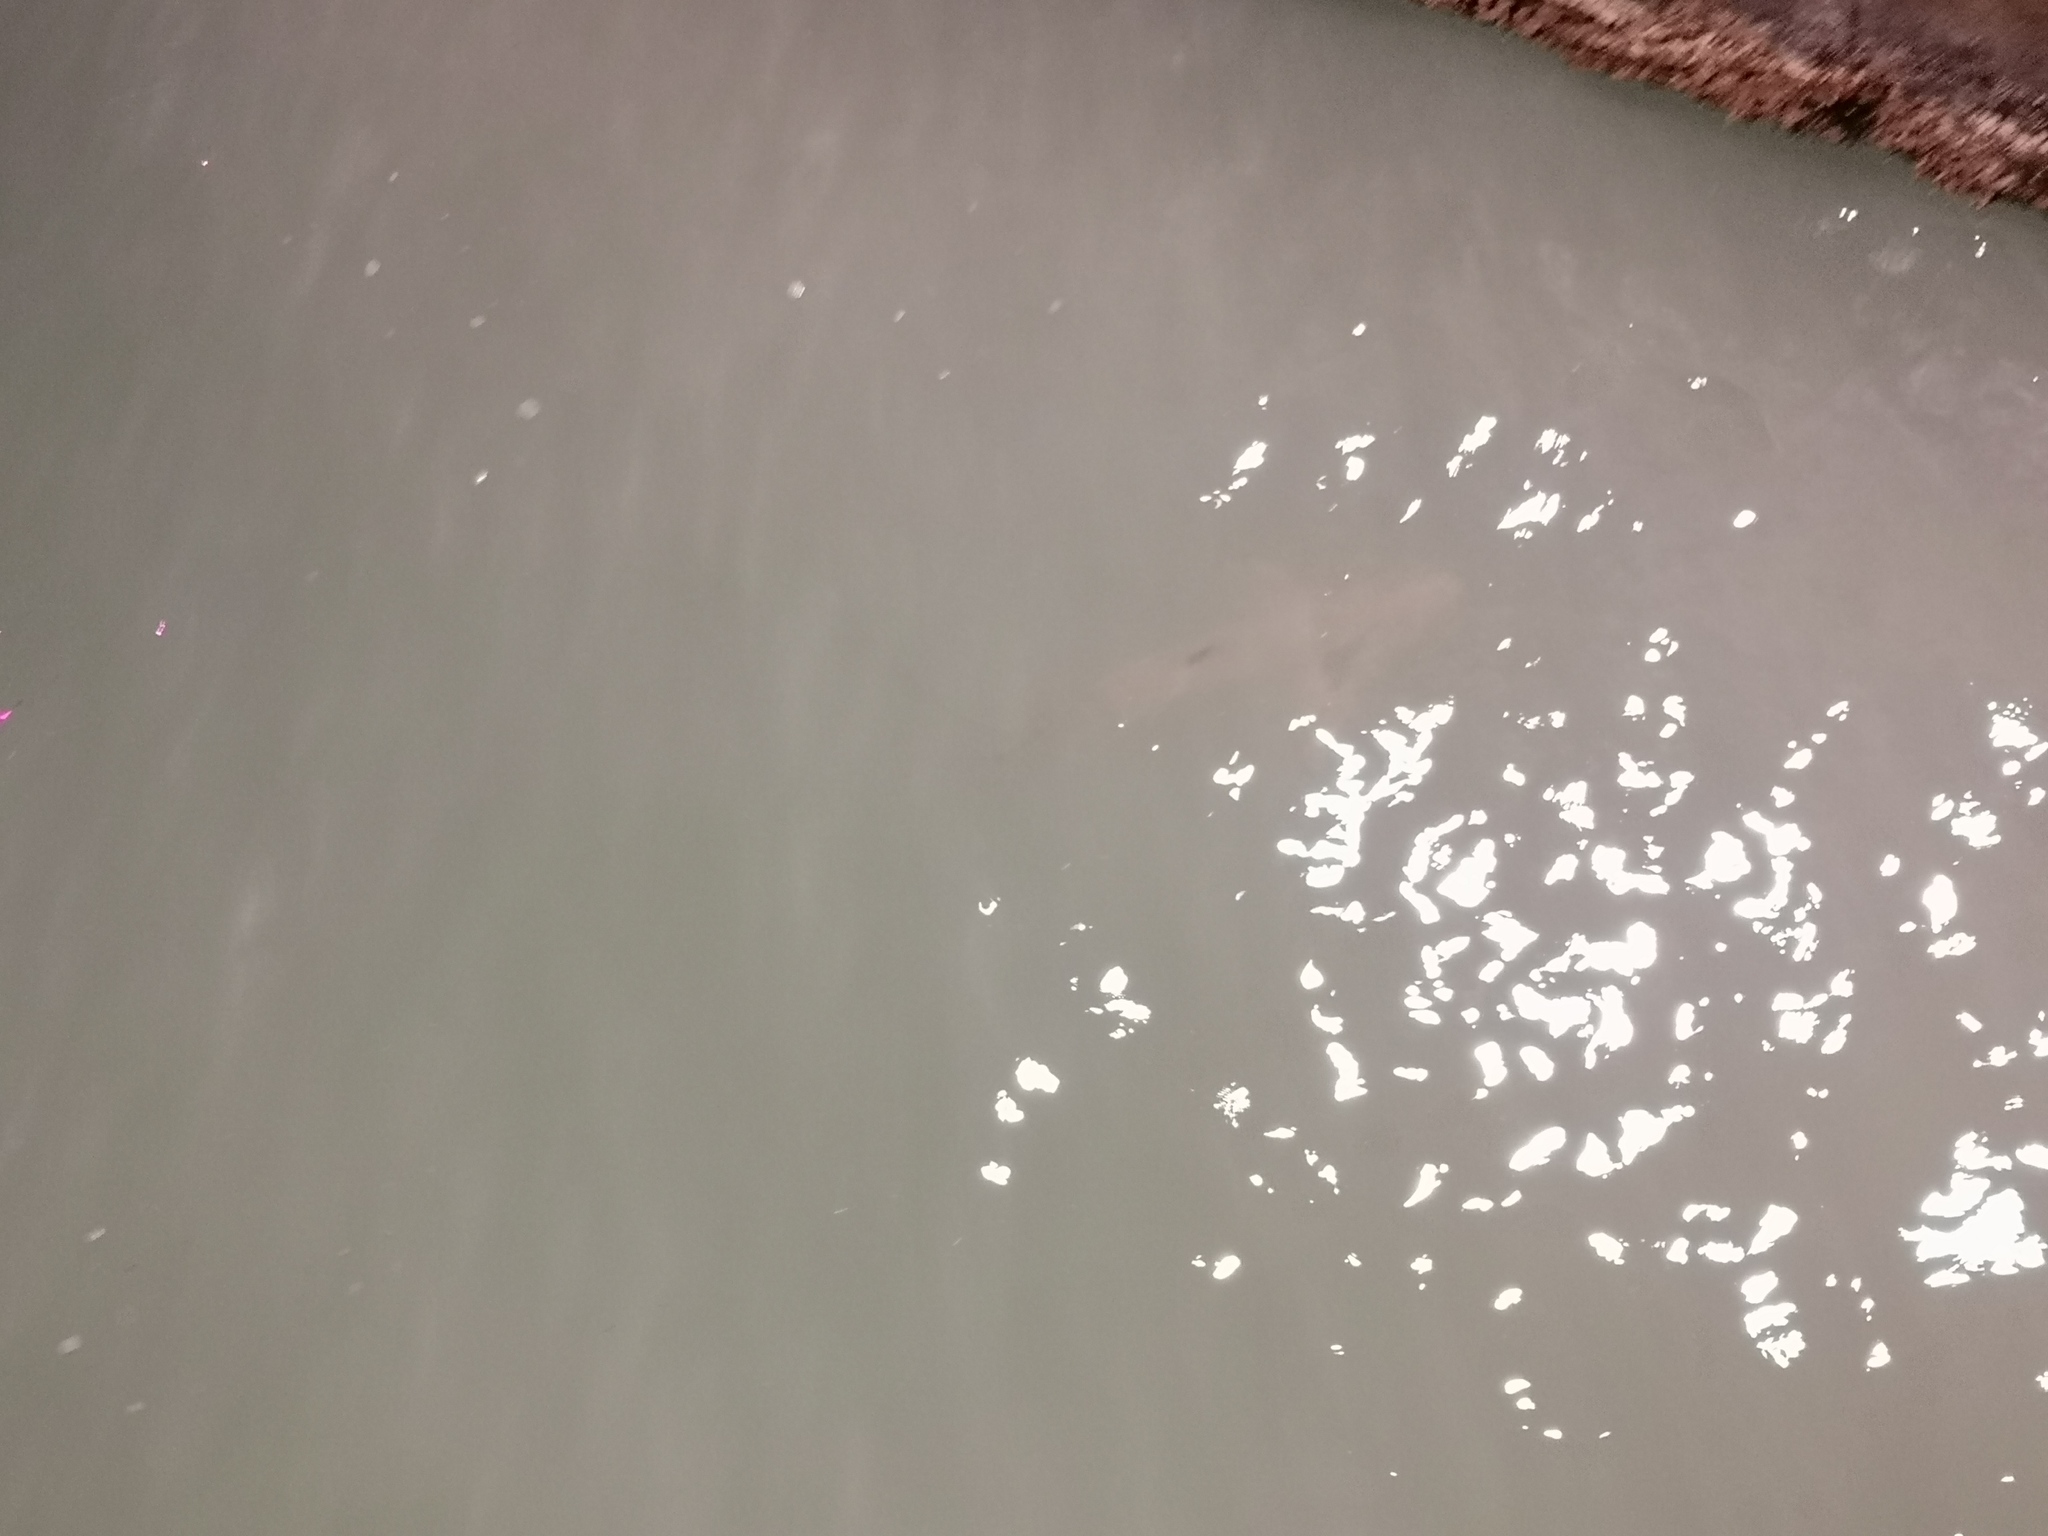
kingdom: Animalia
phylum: Chordata
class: Elasmobranchii
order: Carcharhiniformes
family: Carcharhinidae
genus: Carcharhinus
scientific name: Carcharhinus limbatus
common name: Blacktip shark
